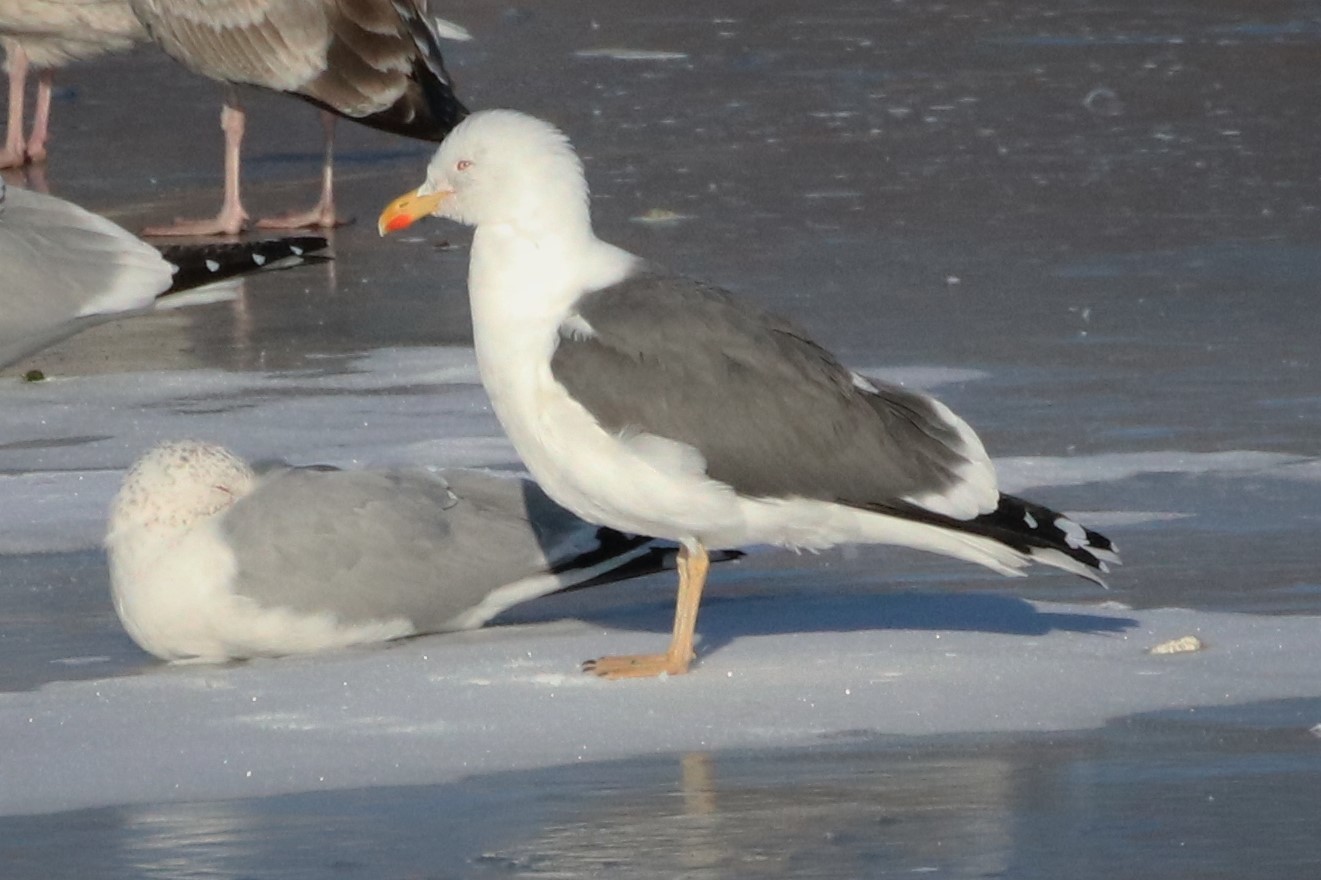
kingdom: Animalia
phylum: Chordata
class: Aves
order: Charadriiformes
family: Laridae
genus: Larus
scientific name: Larus fuscus
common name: Lesser black-backed gull
